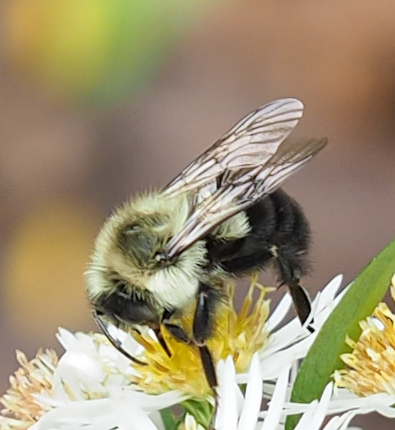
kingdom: Animalia
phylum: Arthropoda
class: Insecta
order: Hymenoptera
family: Apidae
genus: Bombus
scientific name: Bombus impatiens
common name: Common eastern bumble bee
